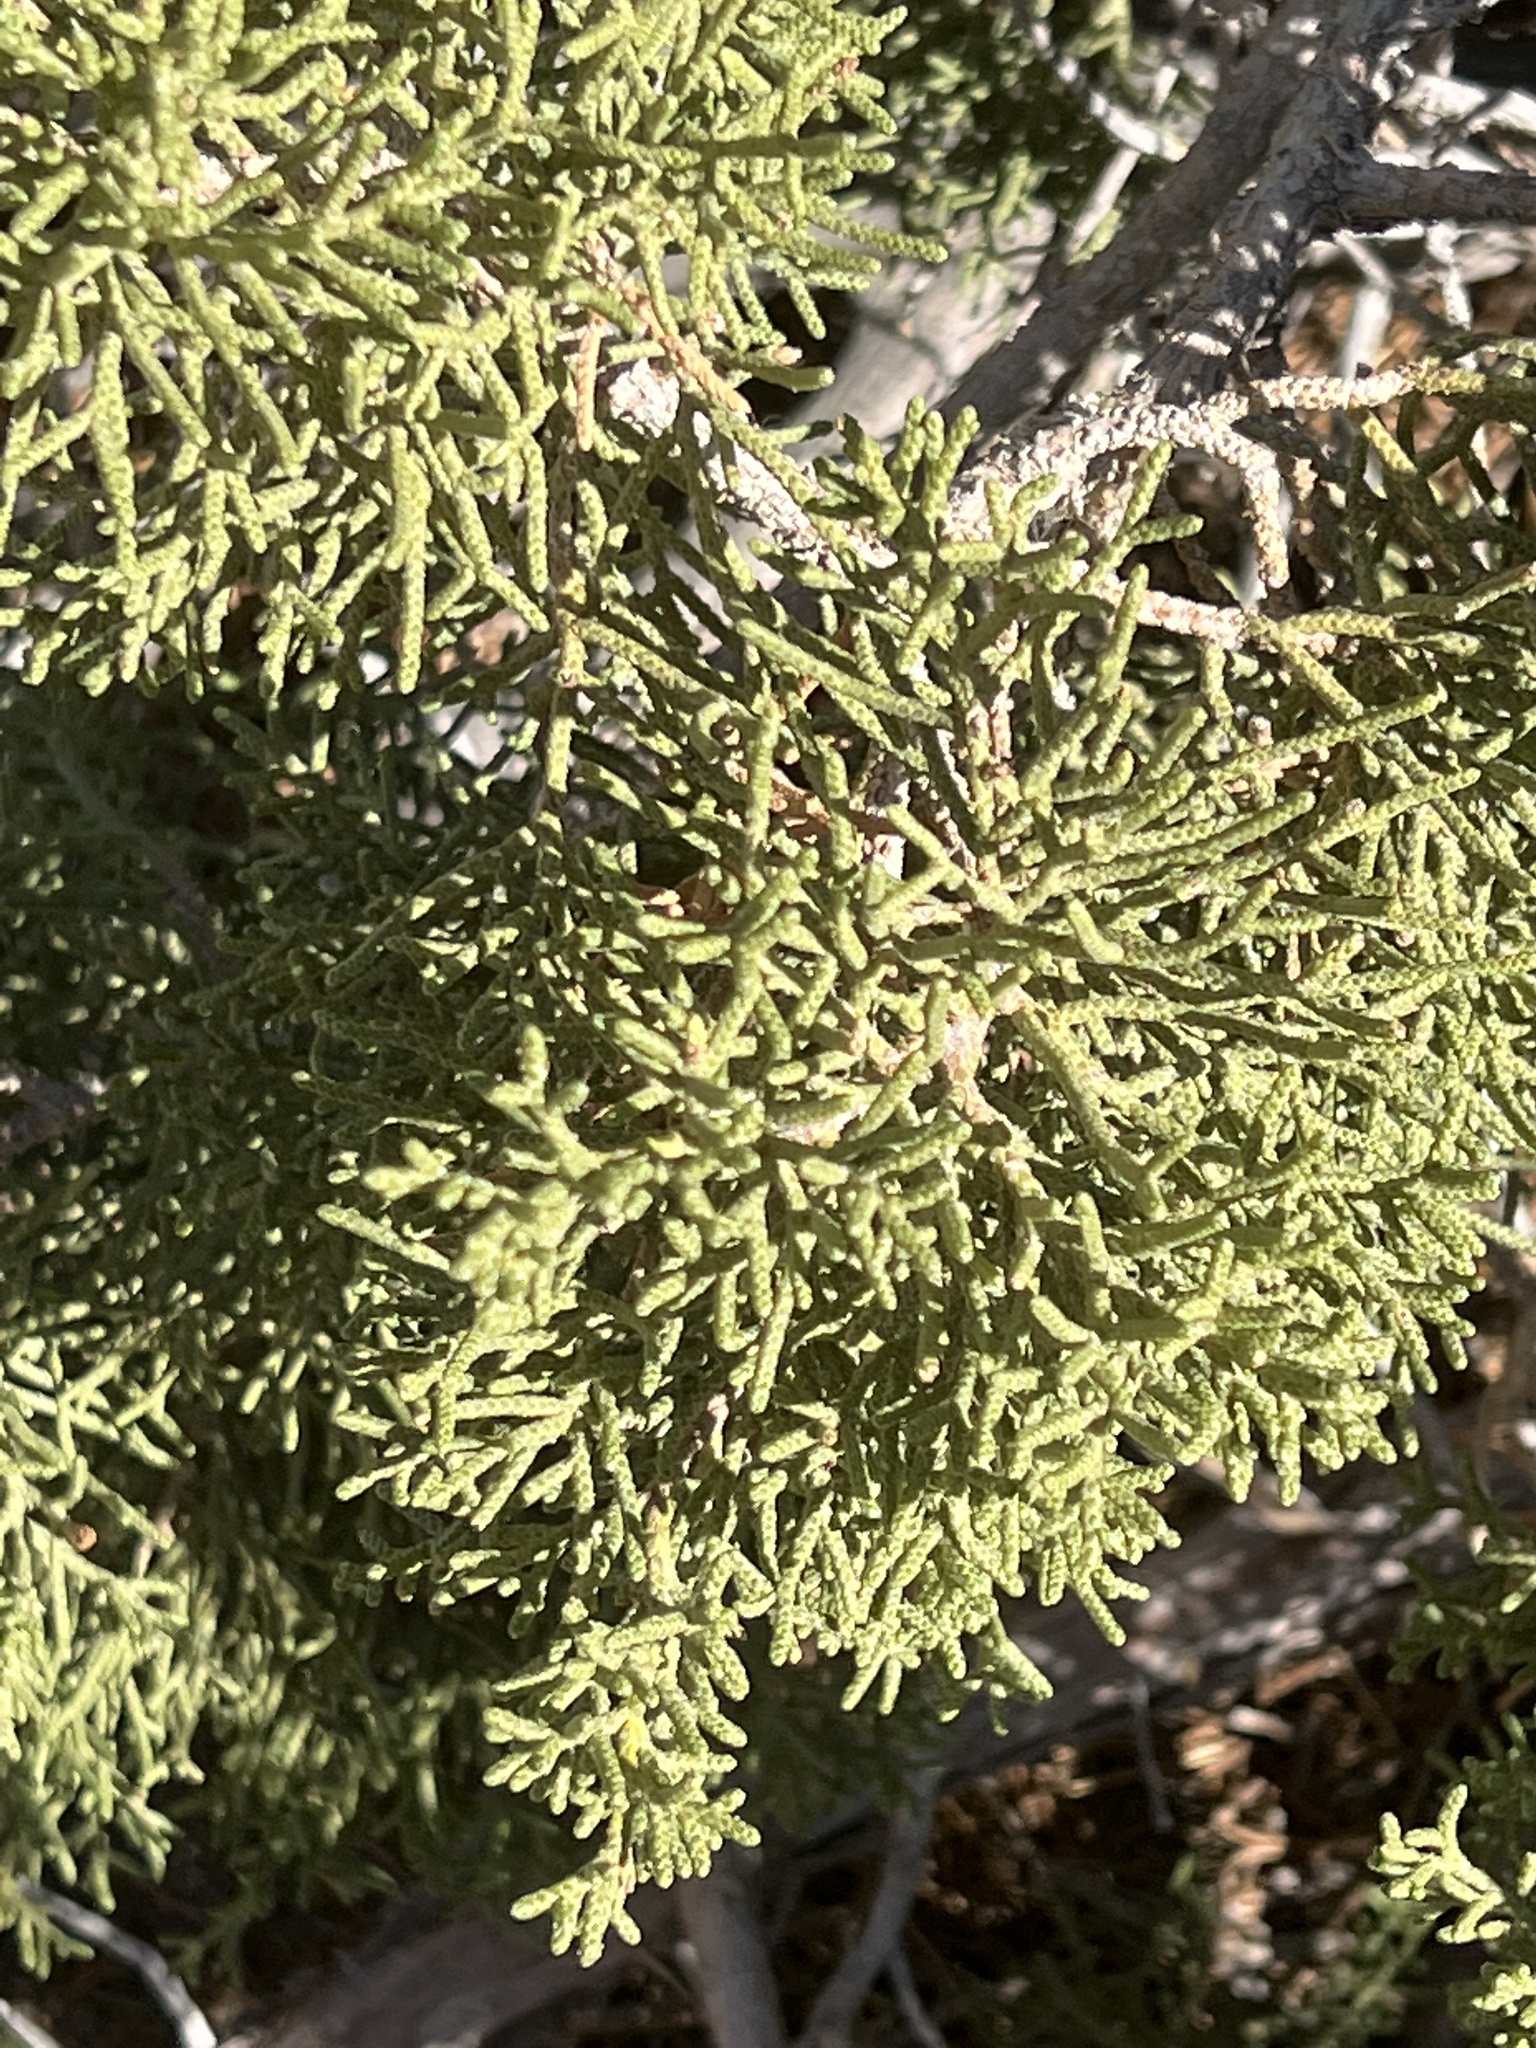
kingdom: Plantae
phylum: Tracheophyta
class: Pinopsida
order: Pinales
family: Cupressaceae
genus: Juniperus
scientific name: Juniperus californica
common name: California juniper
